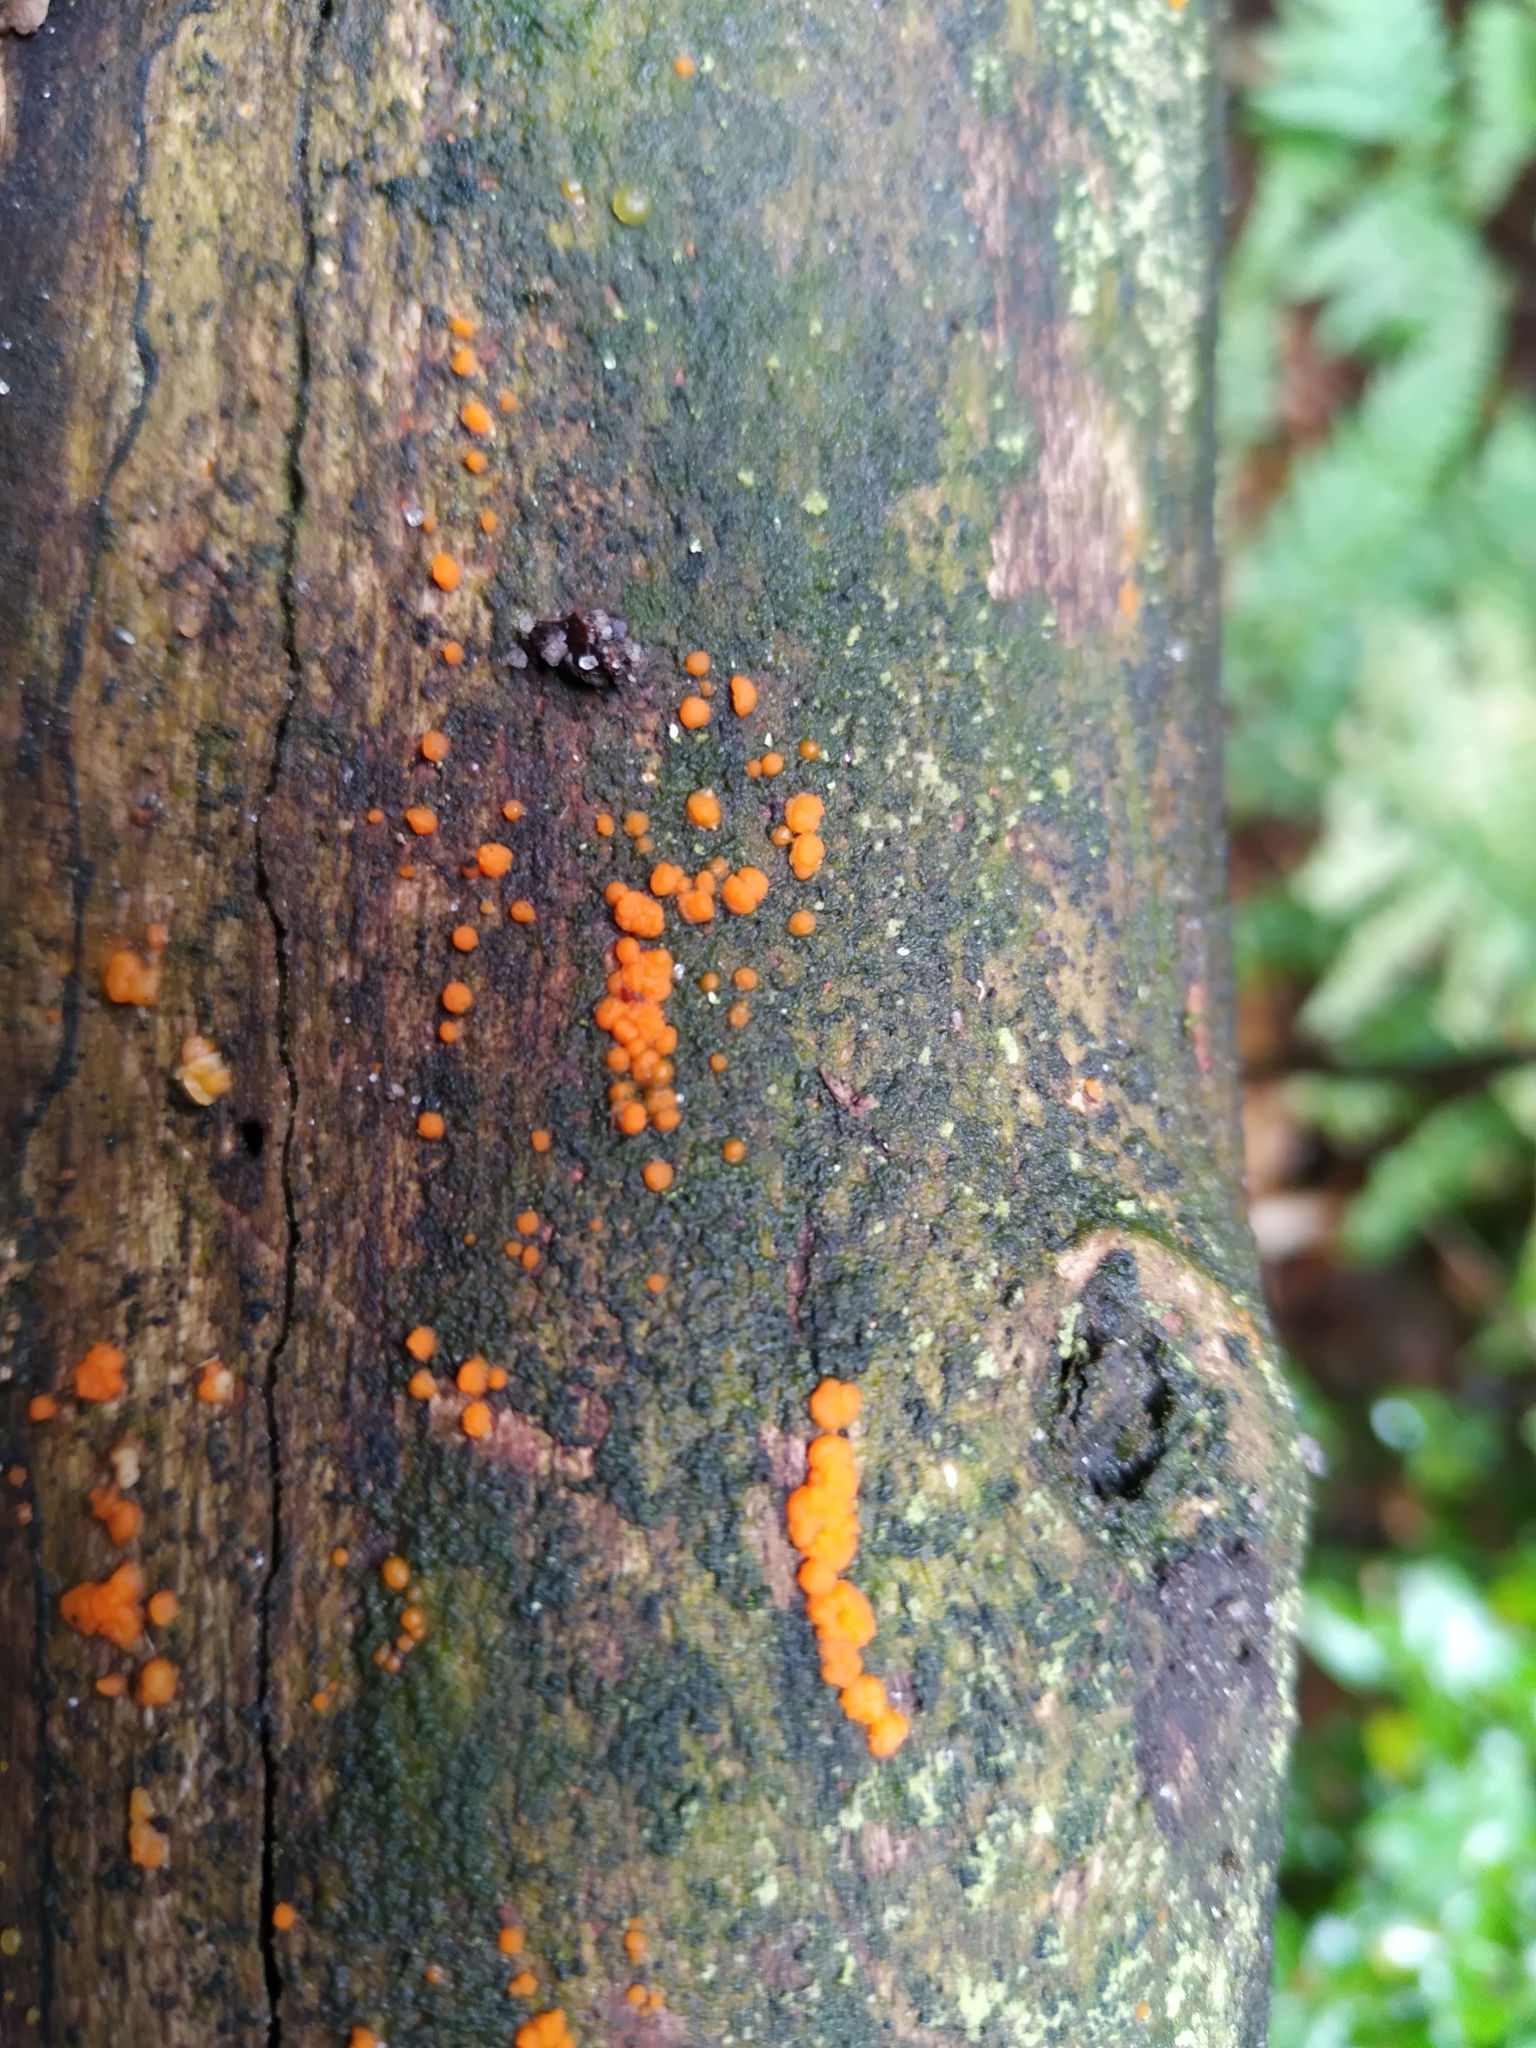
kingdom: Fungi
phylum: Basidiomycota
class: Dacrymycetes
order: Dacrymycetales
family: Dacrymycetaceae
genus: Dacrymyces
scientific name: Dacrymyces stillatus
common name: Common jelly spot
